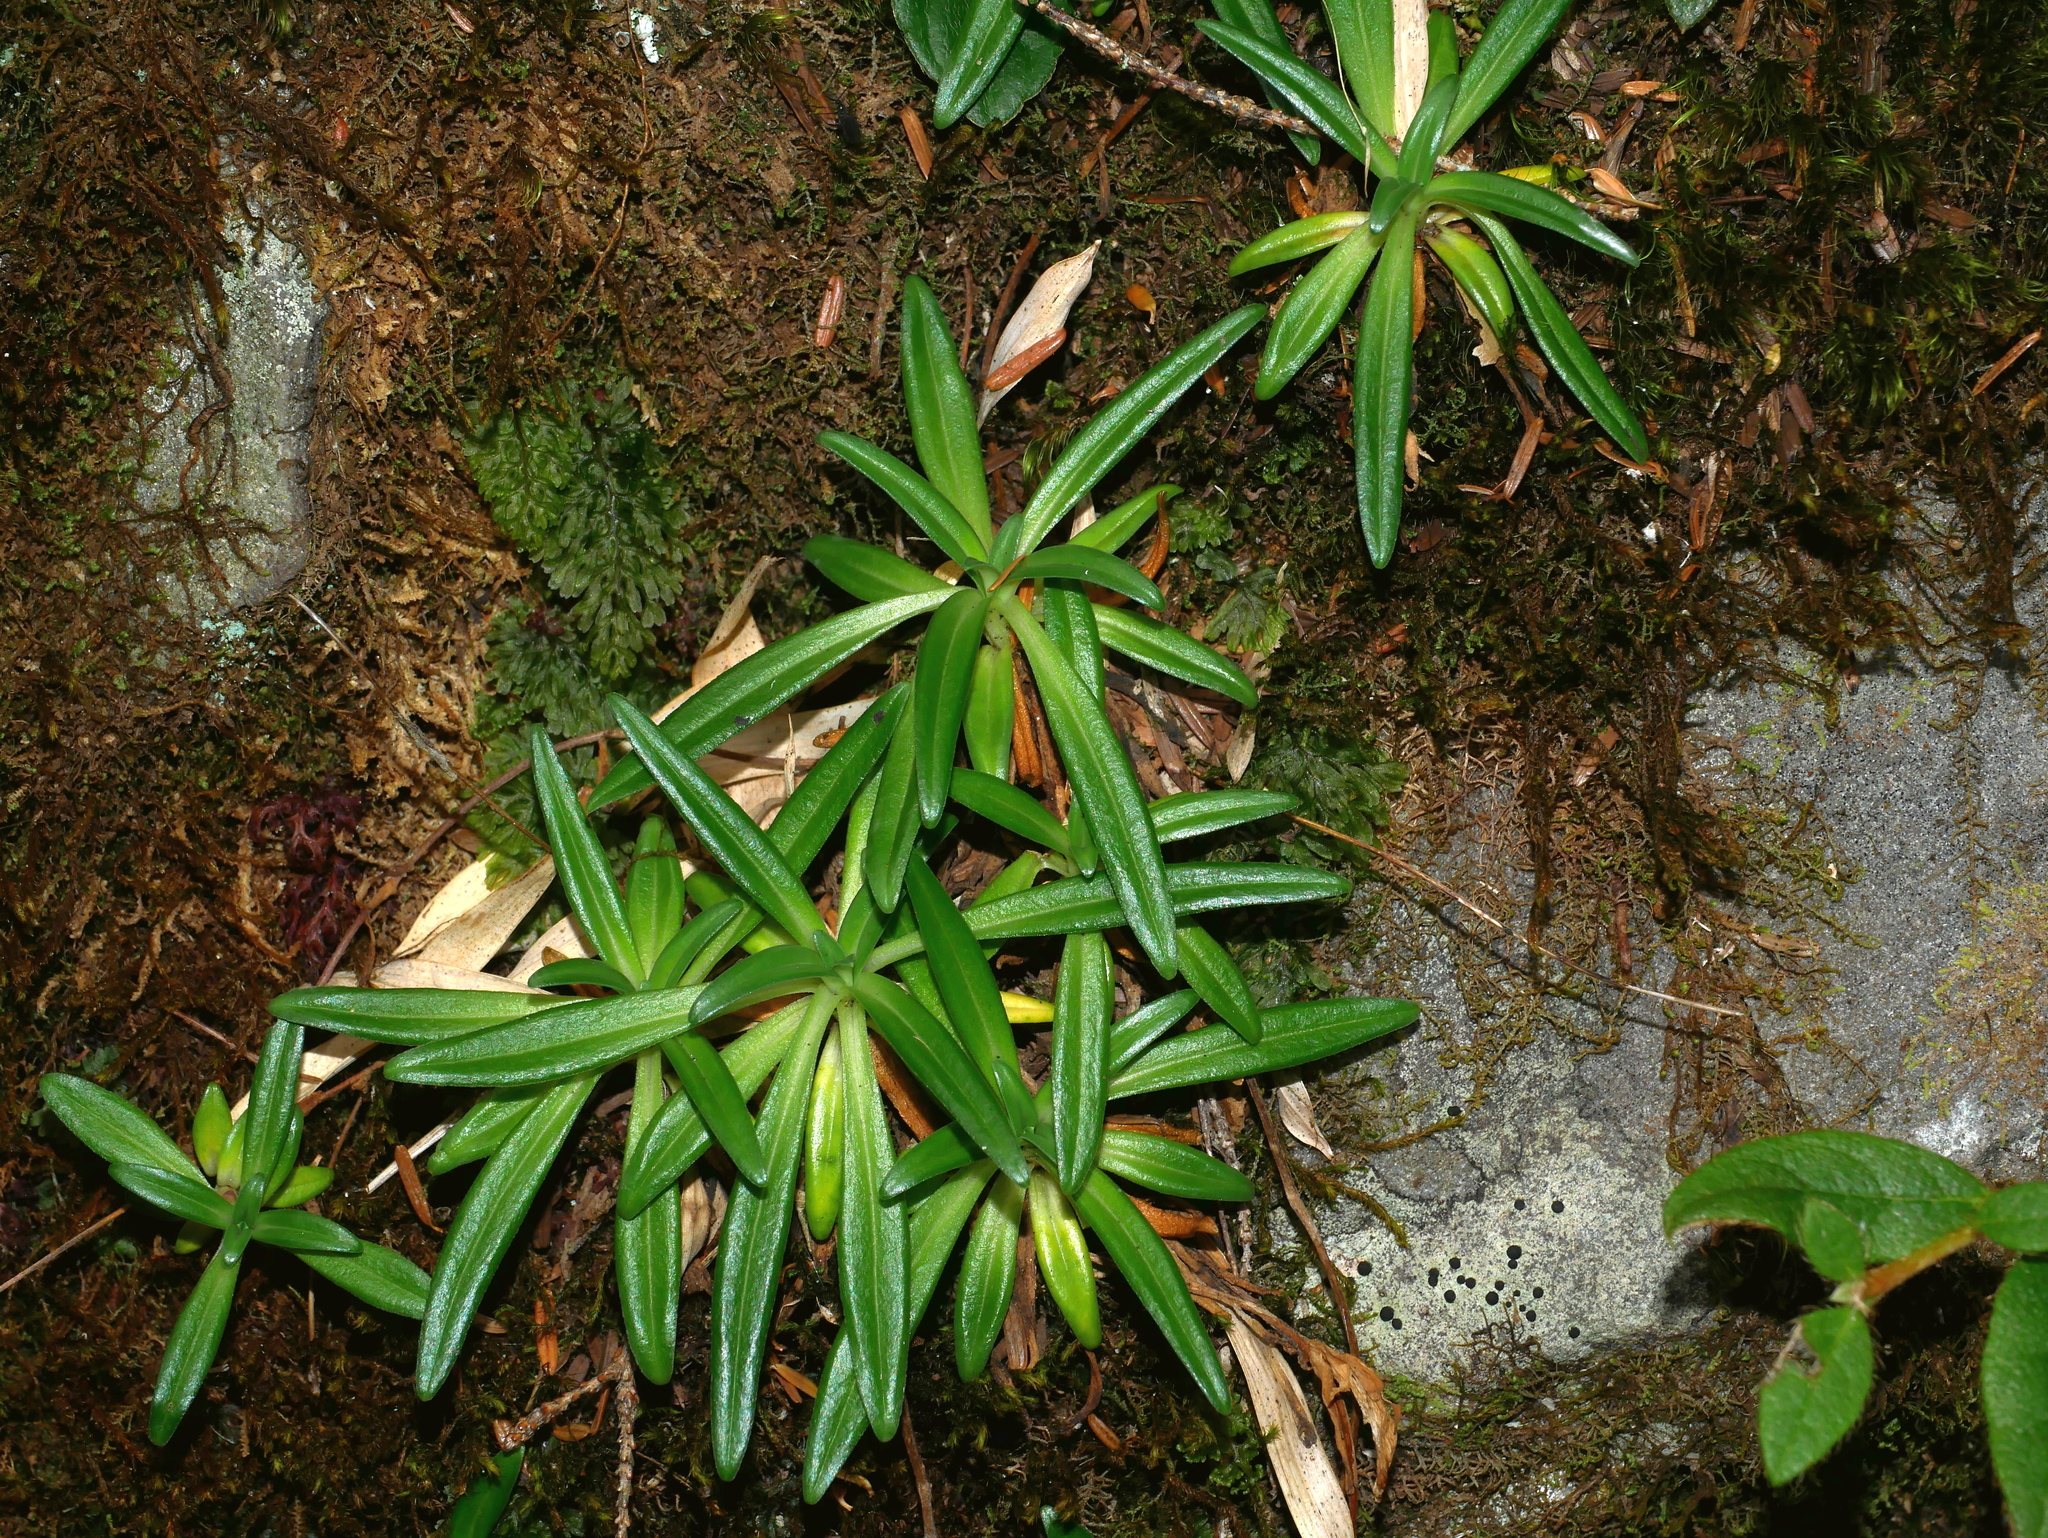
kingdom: Plantae
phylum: Tracheophyta
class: Magnoliopsida
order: Gentianales
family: Gentianaceae
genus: Gentiana
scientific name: Gentiana davidii
